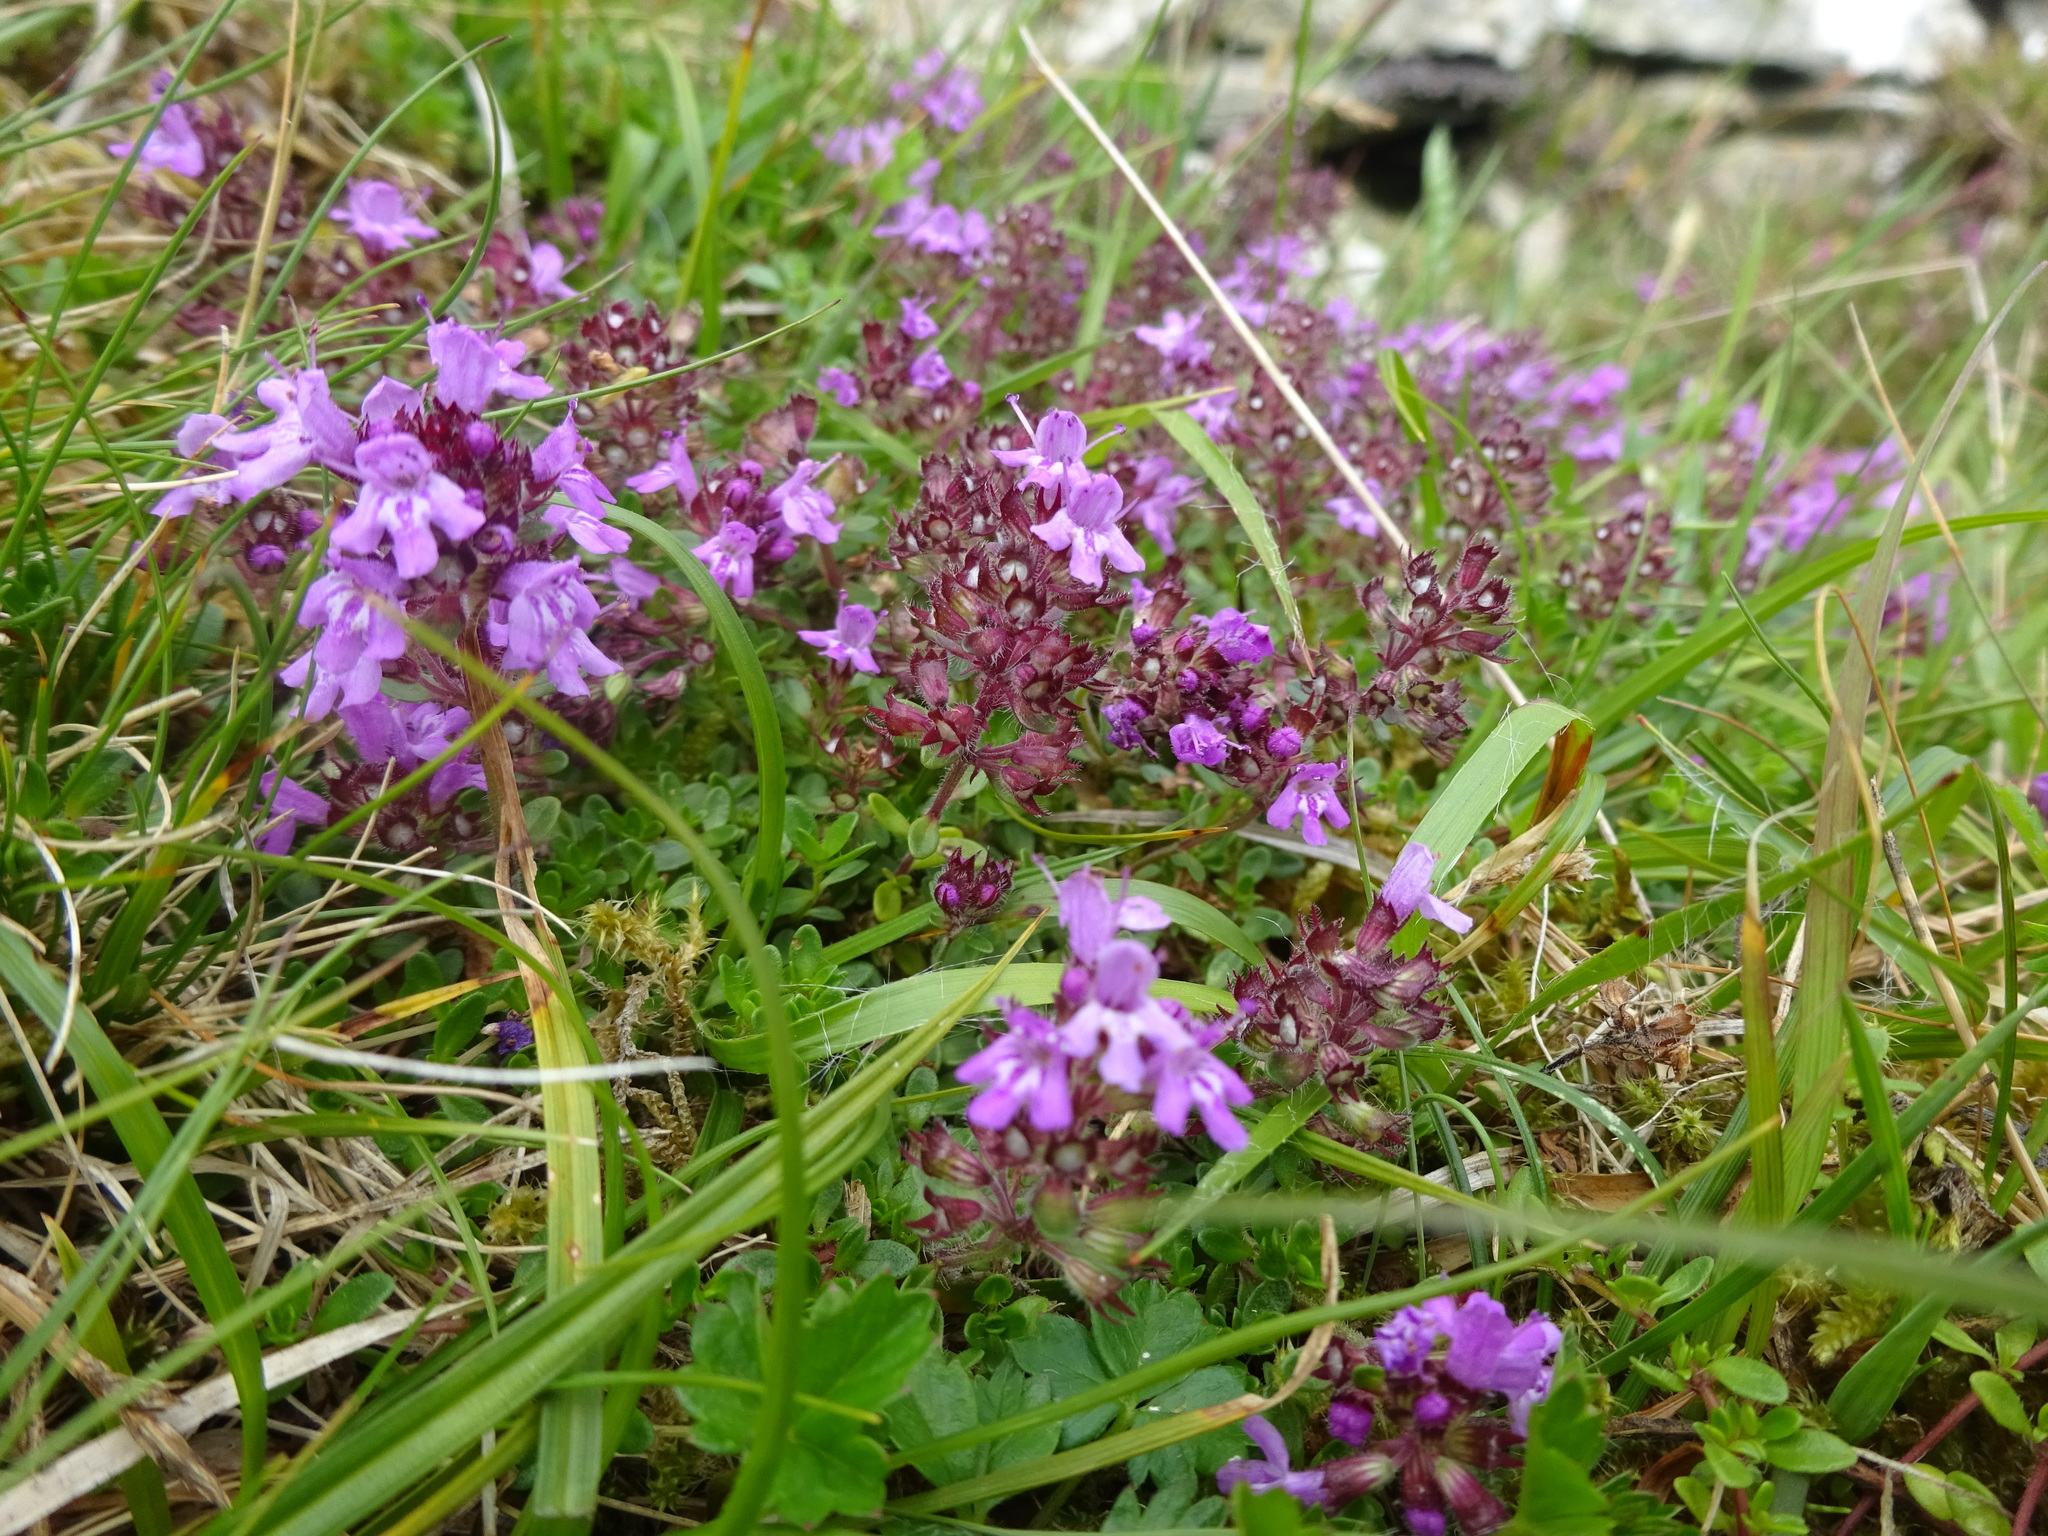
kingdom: Plantae
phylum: Tracheophyta
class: Magnoliopsida
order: Lamiales
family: Lamiaceae
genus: Thymus
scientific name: Thymus praecox
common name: Wild thyme
